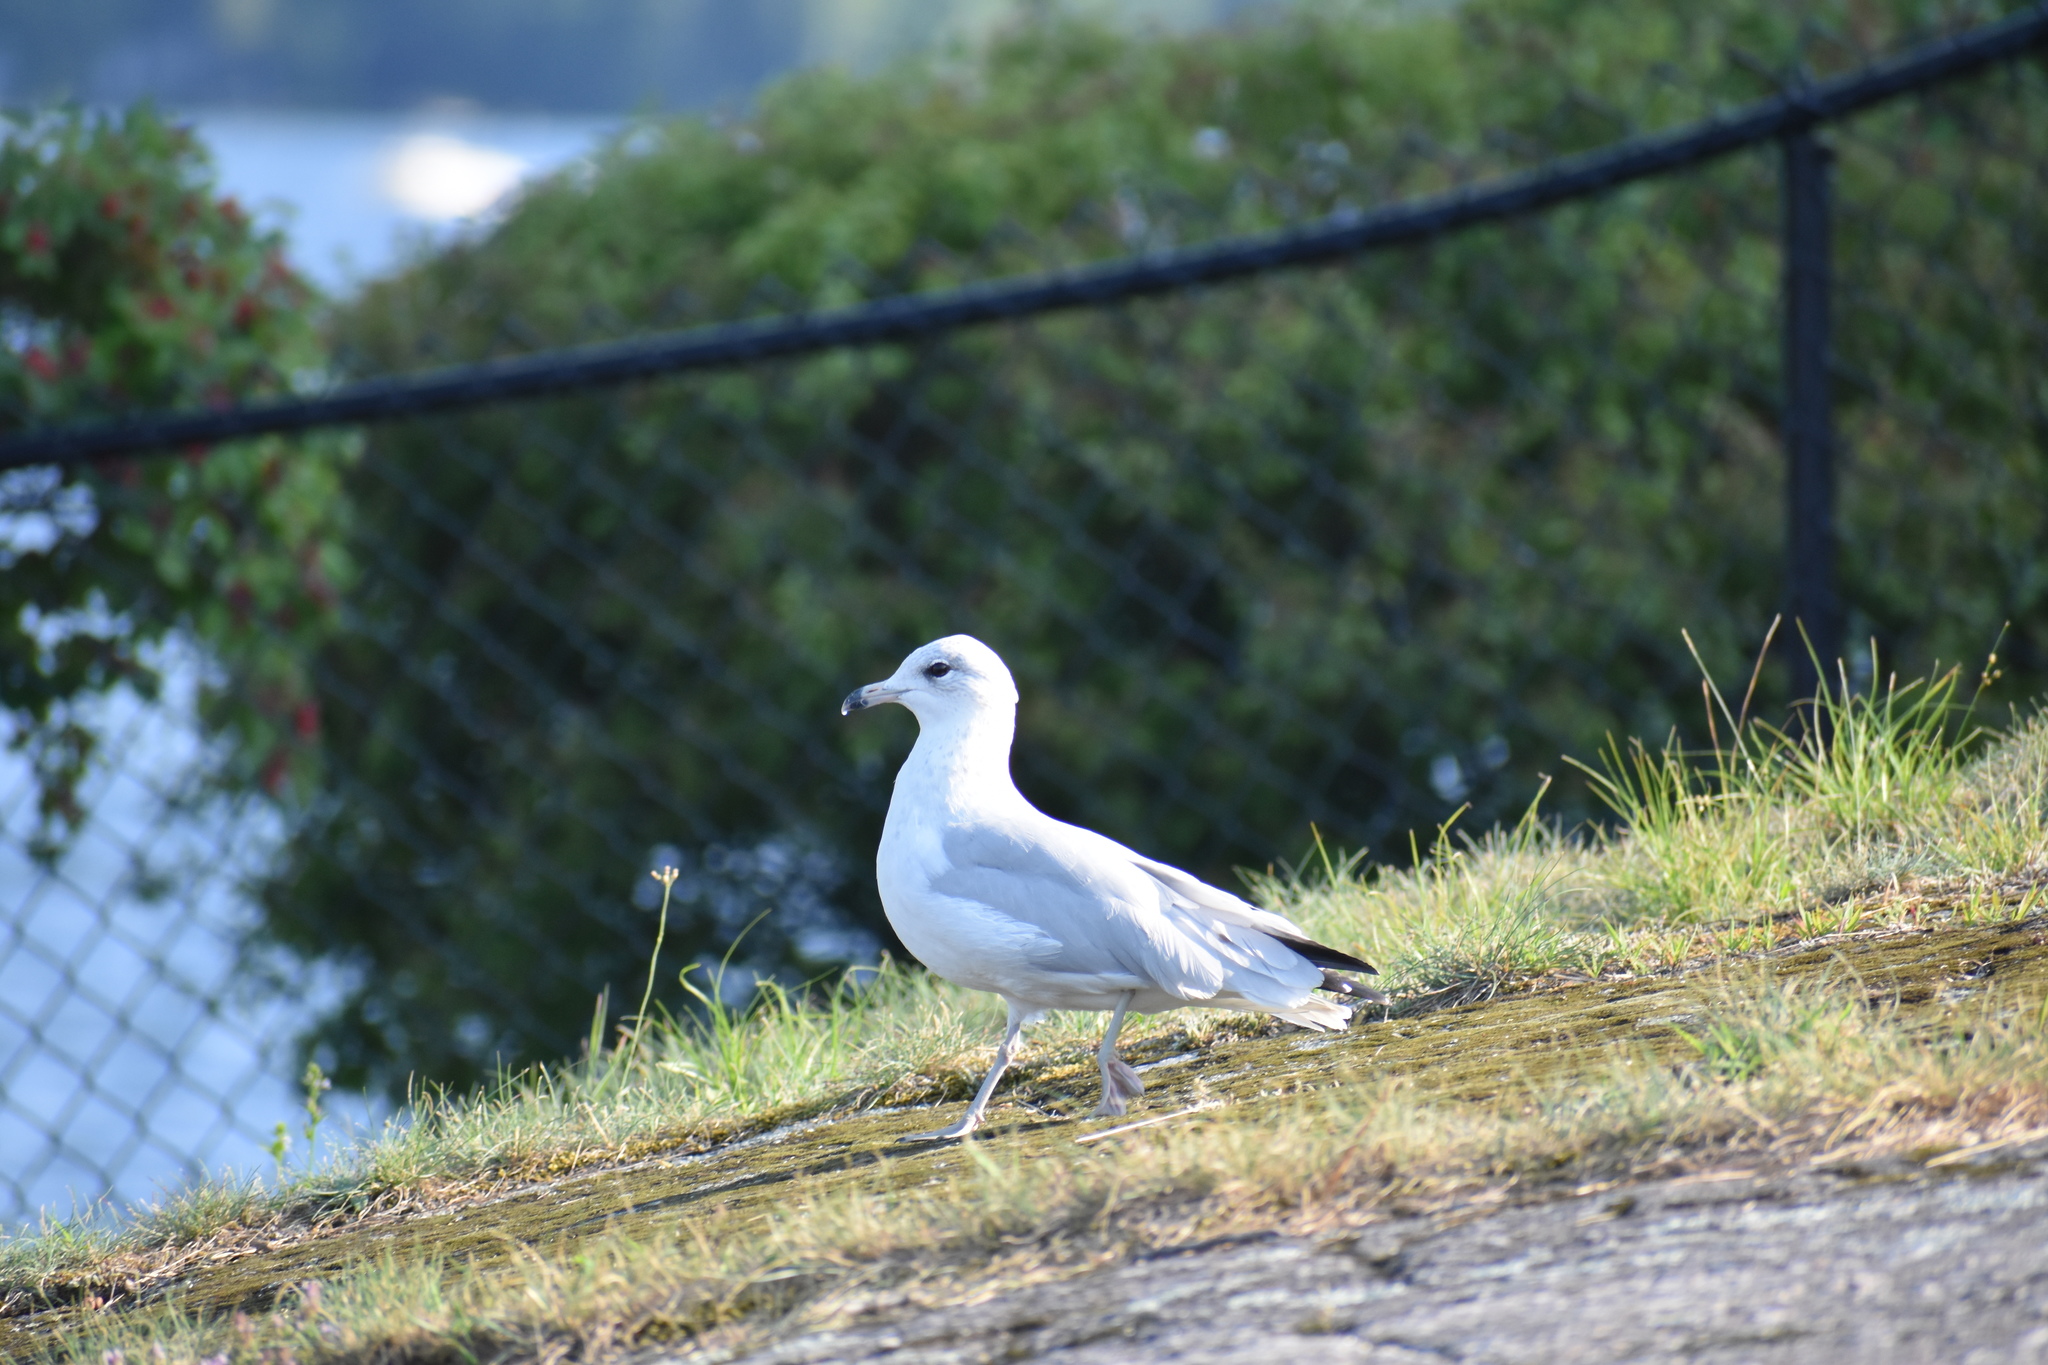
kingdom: Animalia
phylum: Chordata
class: Aves
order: Charadriiformes
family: Laridae
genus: Larus
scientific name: Larus delawarensis
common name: Ring-billed gull
